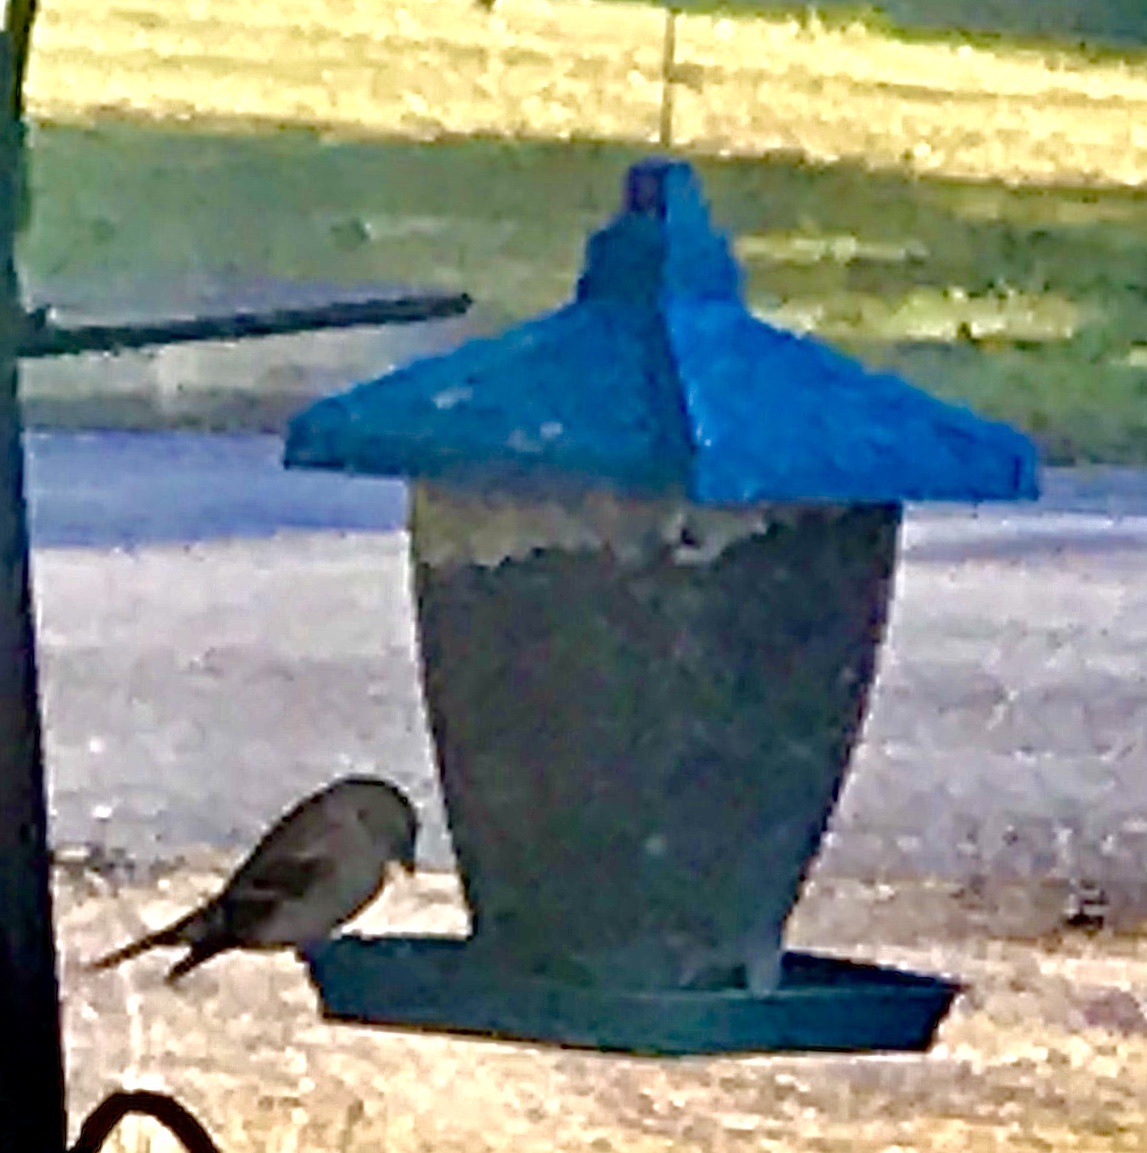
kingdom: Animalia
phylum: Chordata
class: Aves
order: Passeriformes
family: Fringillidae
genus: Spinus
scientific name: Spinus tristis
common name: American goldfinch
